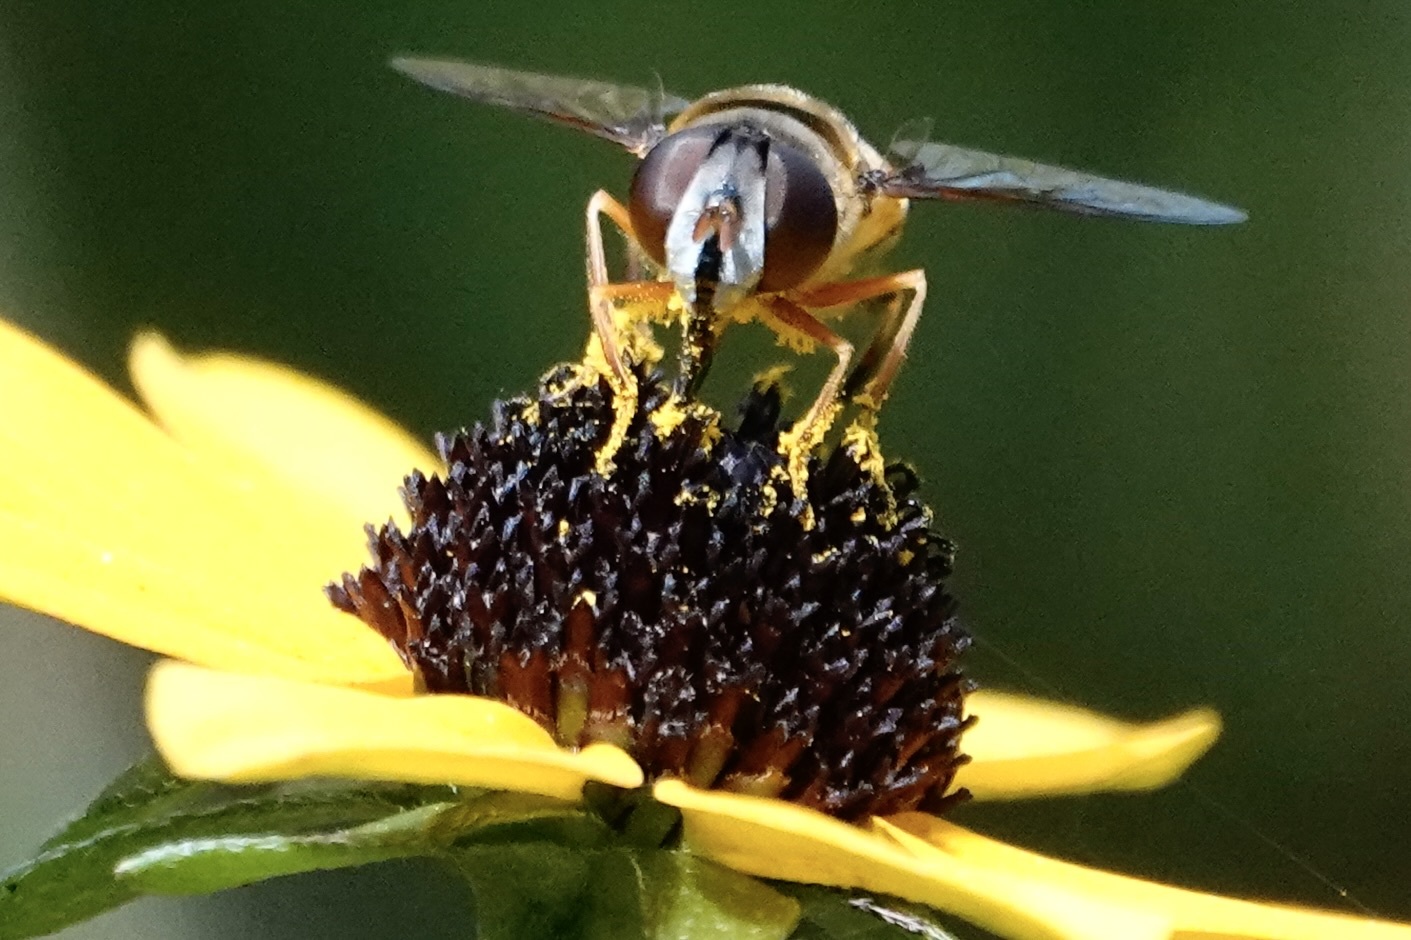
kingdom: Animalia
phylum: Arthropoda
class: Insecta
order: Diptera
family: Syrphidae
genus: Eristalis
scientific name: Eristalis transversa
